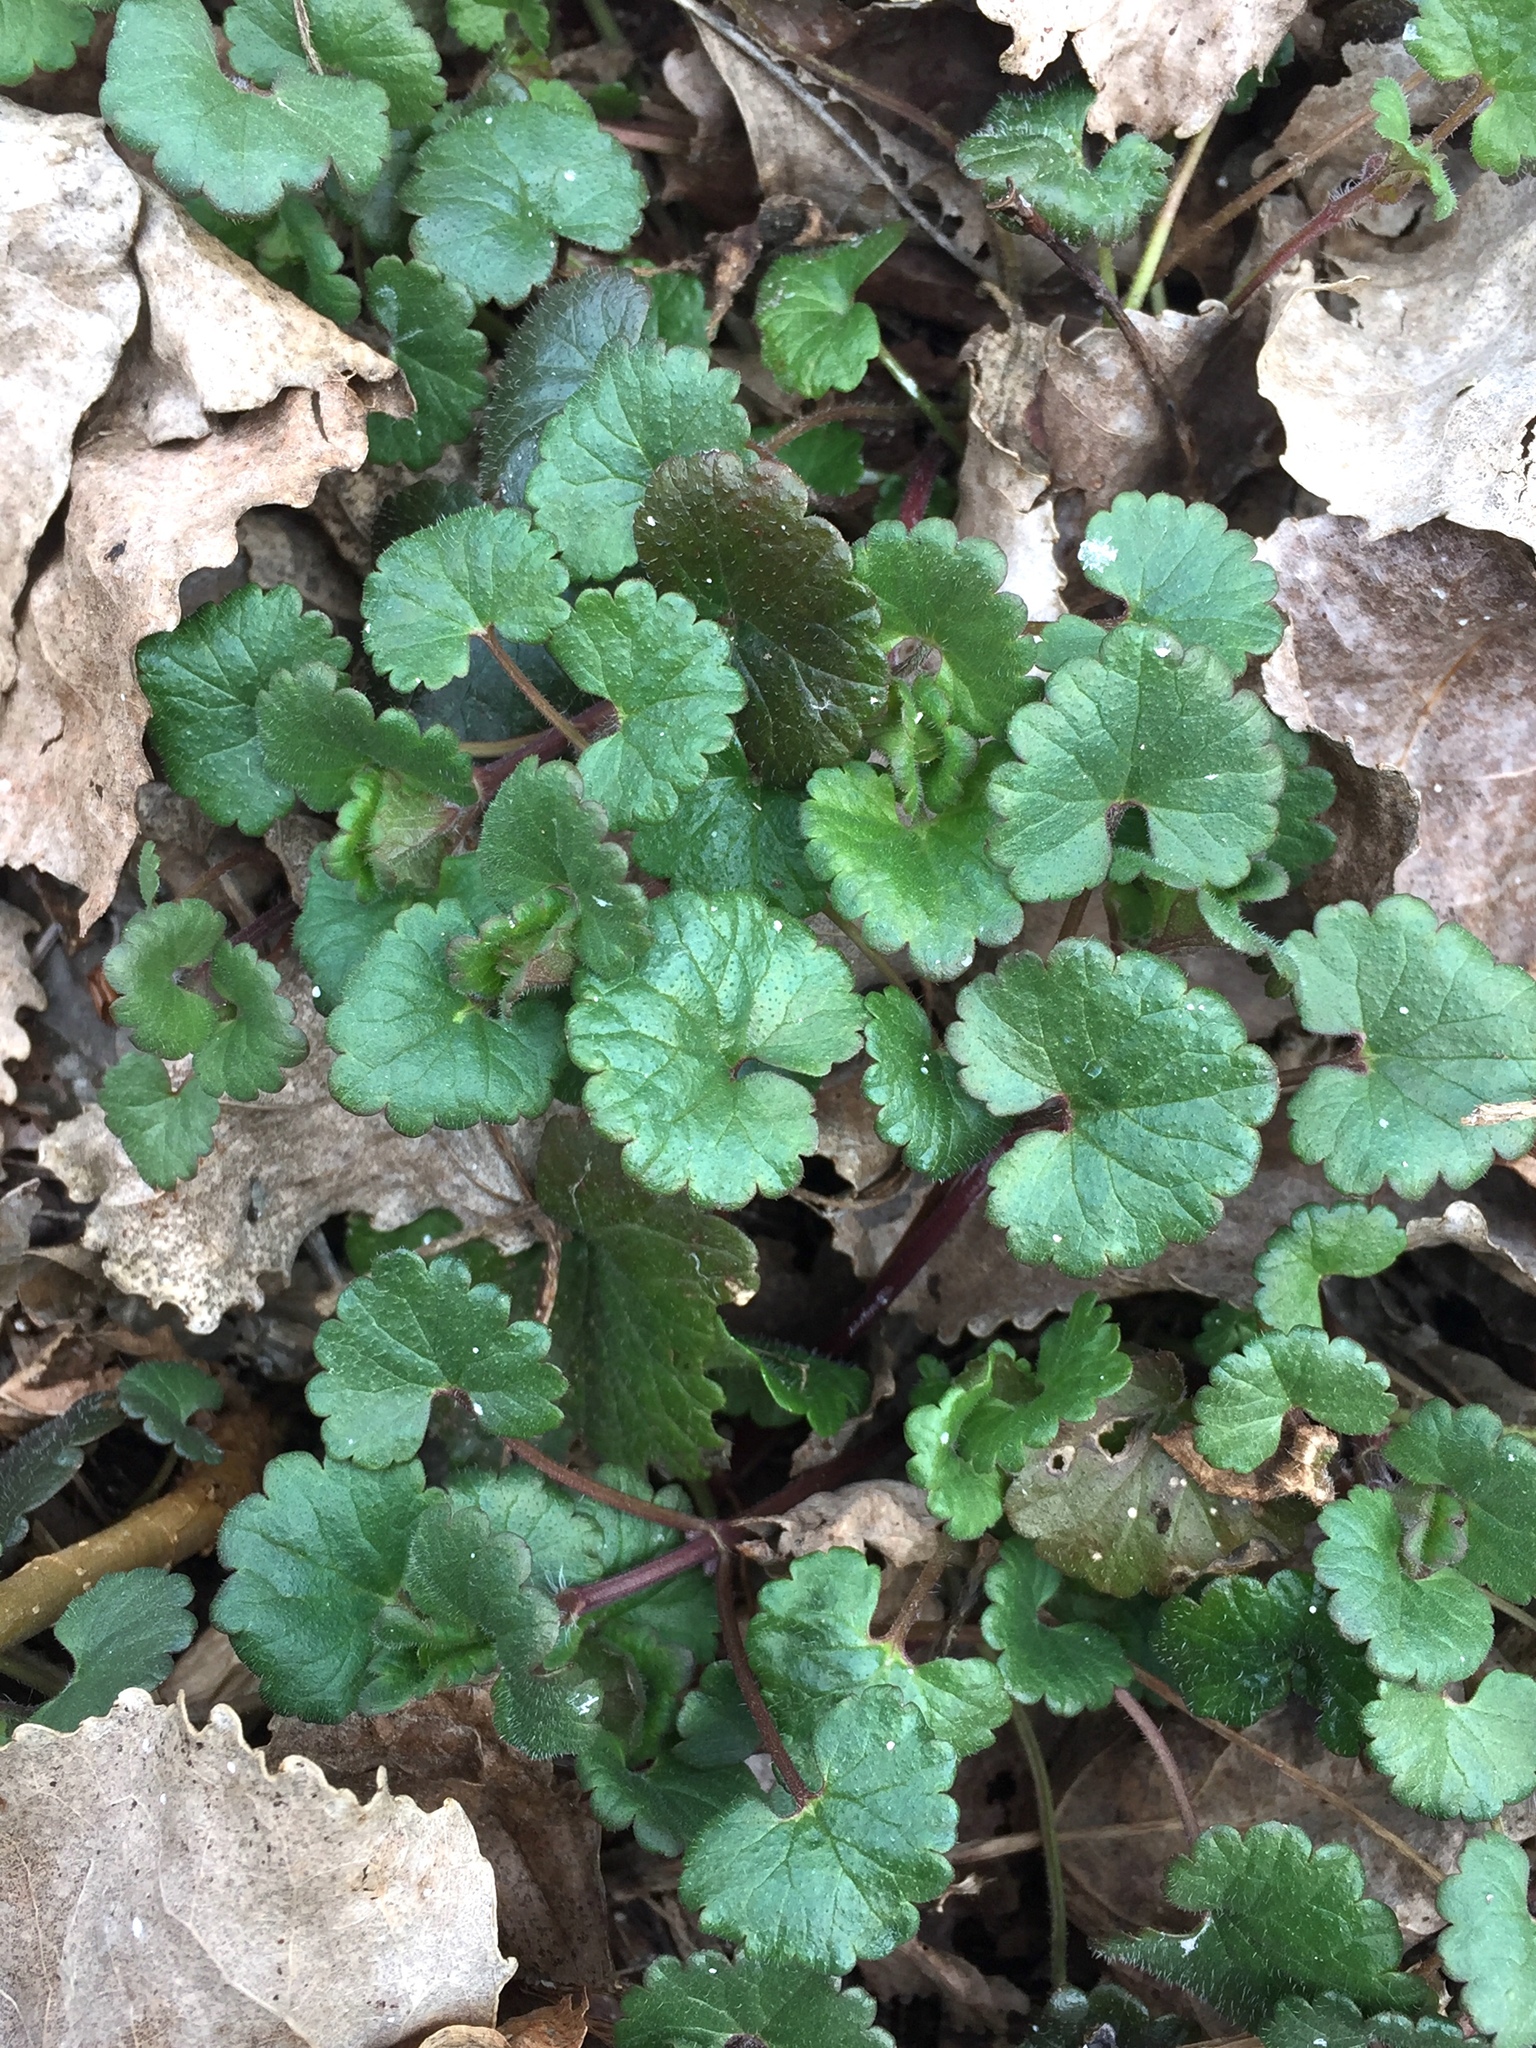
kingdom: Plantae
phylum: Tracheophyta
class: Magnoliopsida
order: Lamiales
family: Lamiaceae
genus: Glechoma
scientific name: Glechoma hederacea
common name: Ground ivy
